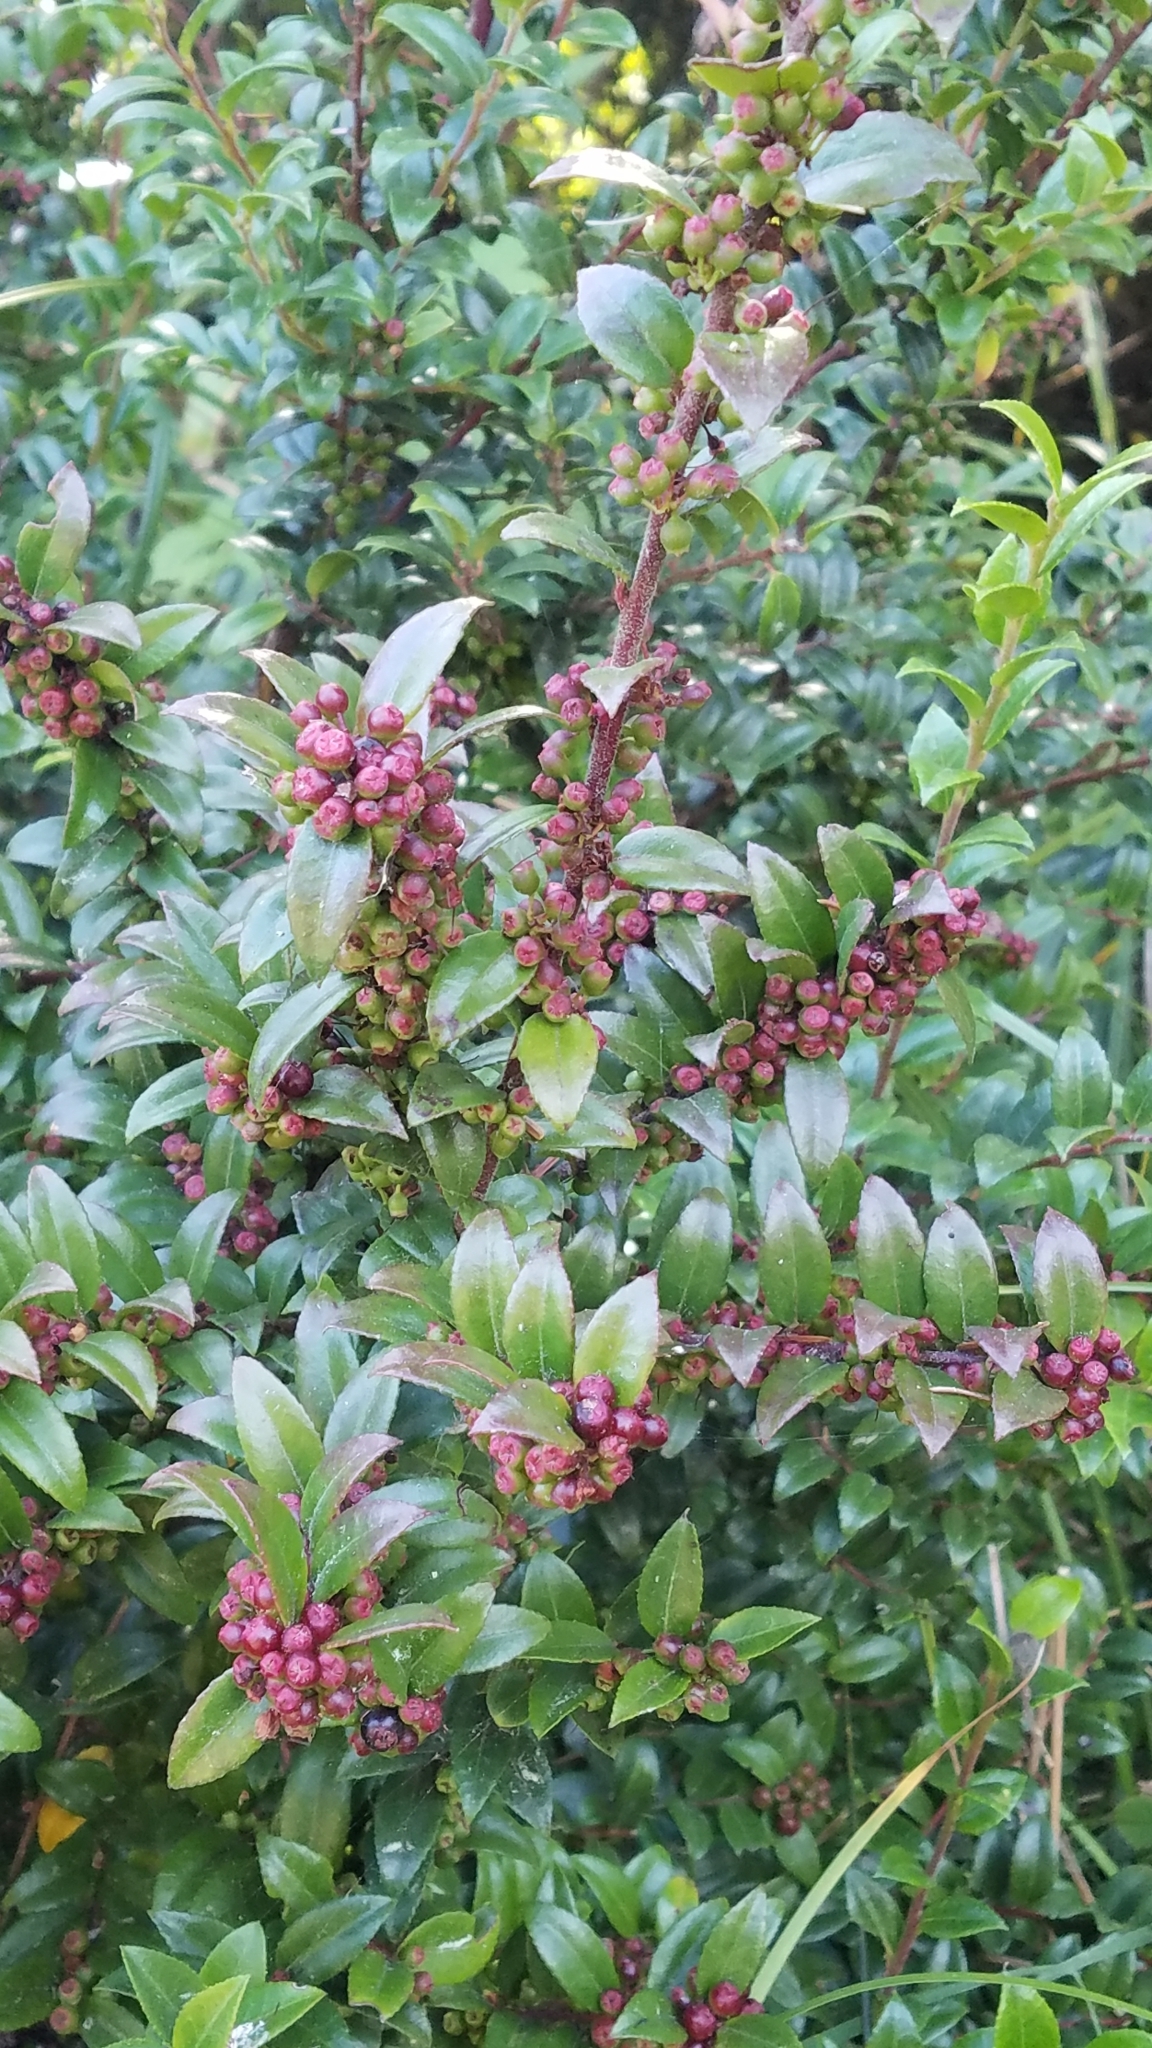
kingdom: Plantae
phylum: Tracheophyta
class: Magnoliopsida
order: Ericales
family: Ericaceae
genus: Vaccinium
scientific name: Vaccinium ovatum
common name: California-huckleberry
